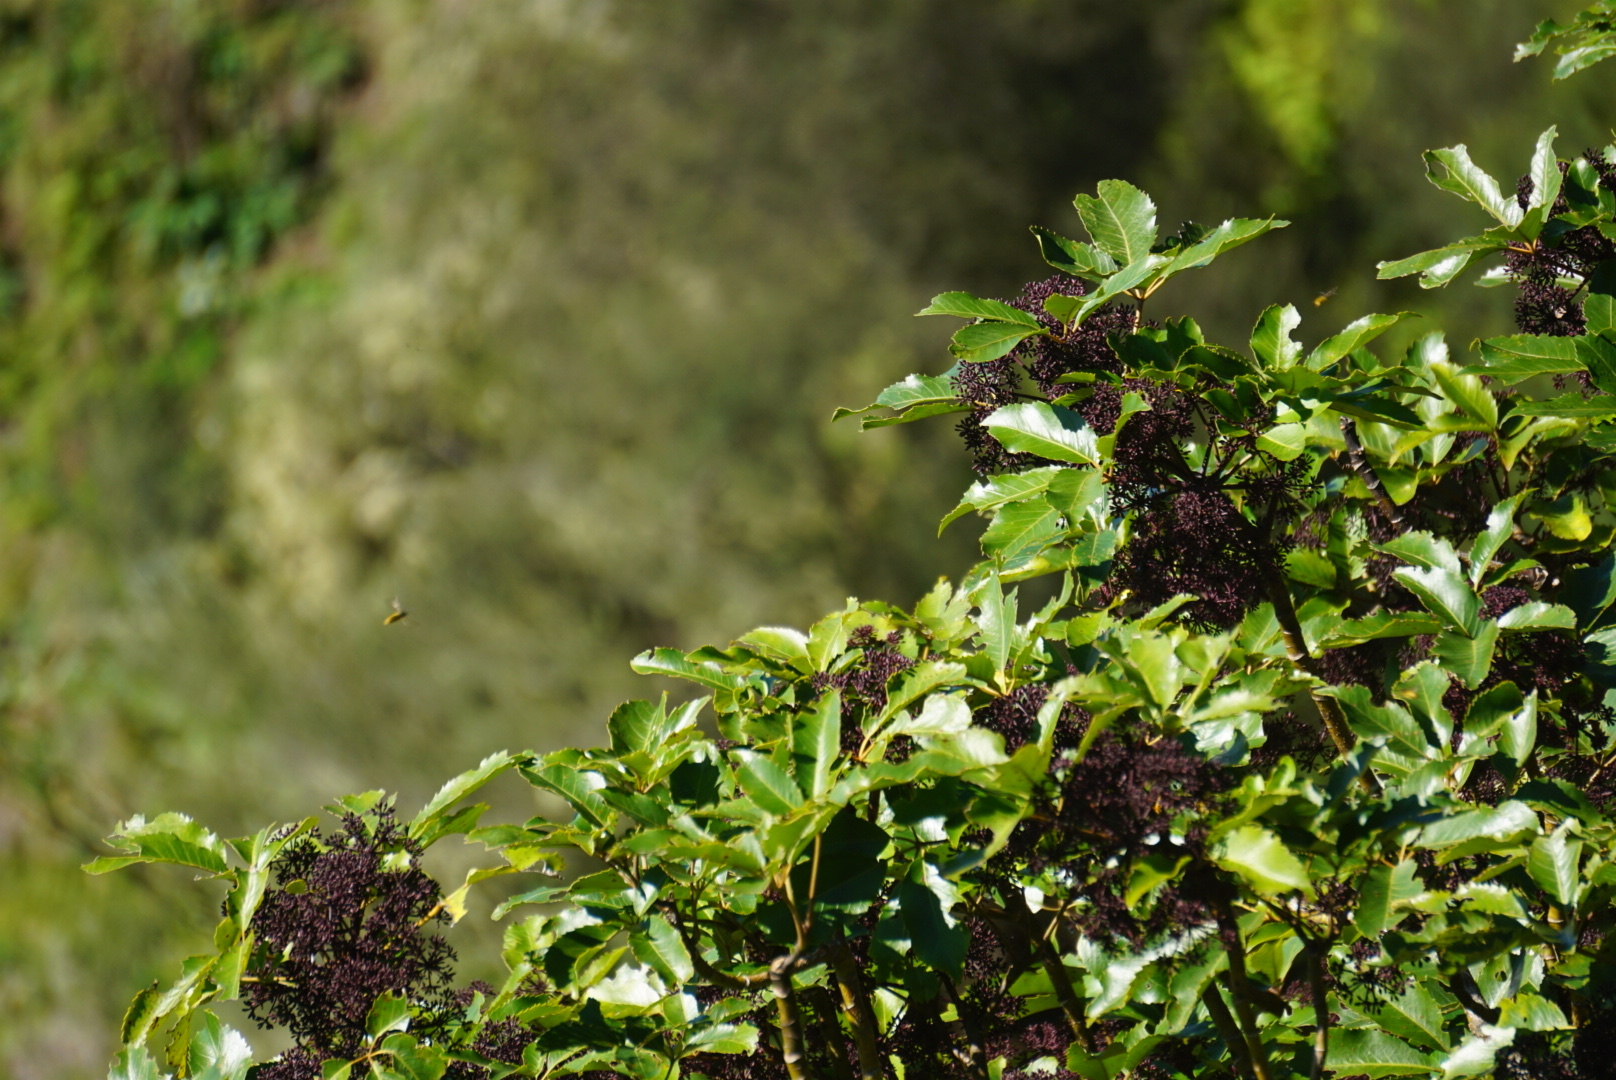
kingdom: Plantae
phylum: Tracheophyta
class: Magnoliopsida
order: Apiales
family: Araliaceae
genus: Neopanax
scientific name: Neopanax arboreus
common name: Five-fingers
